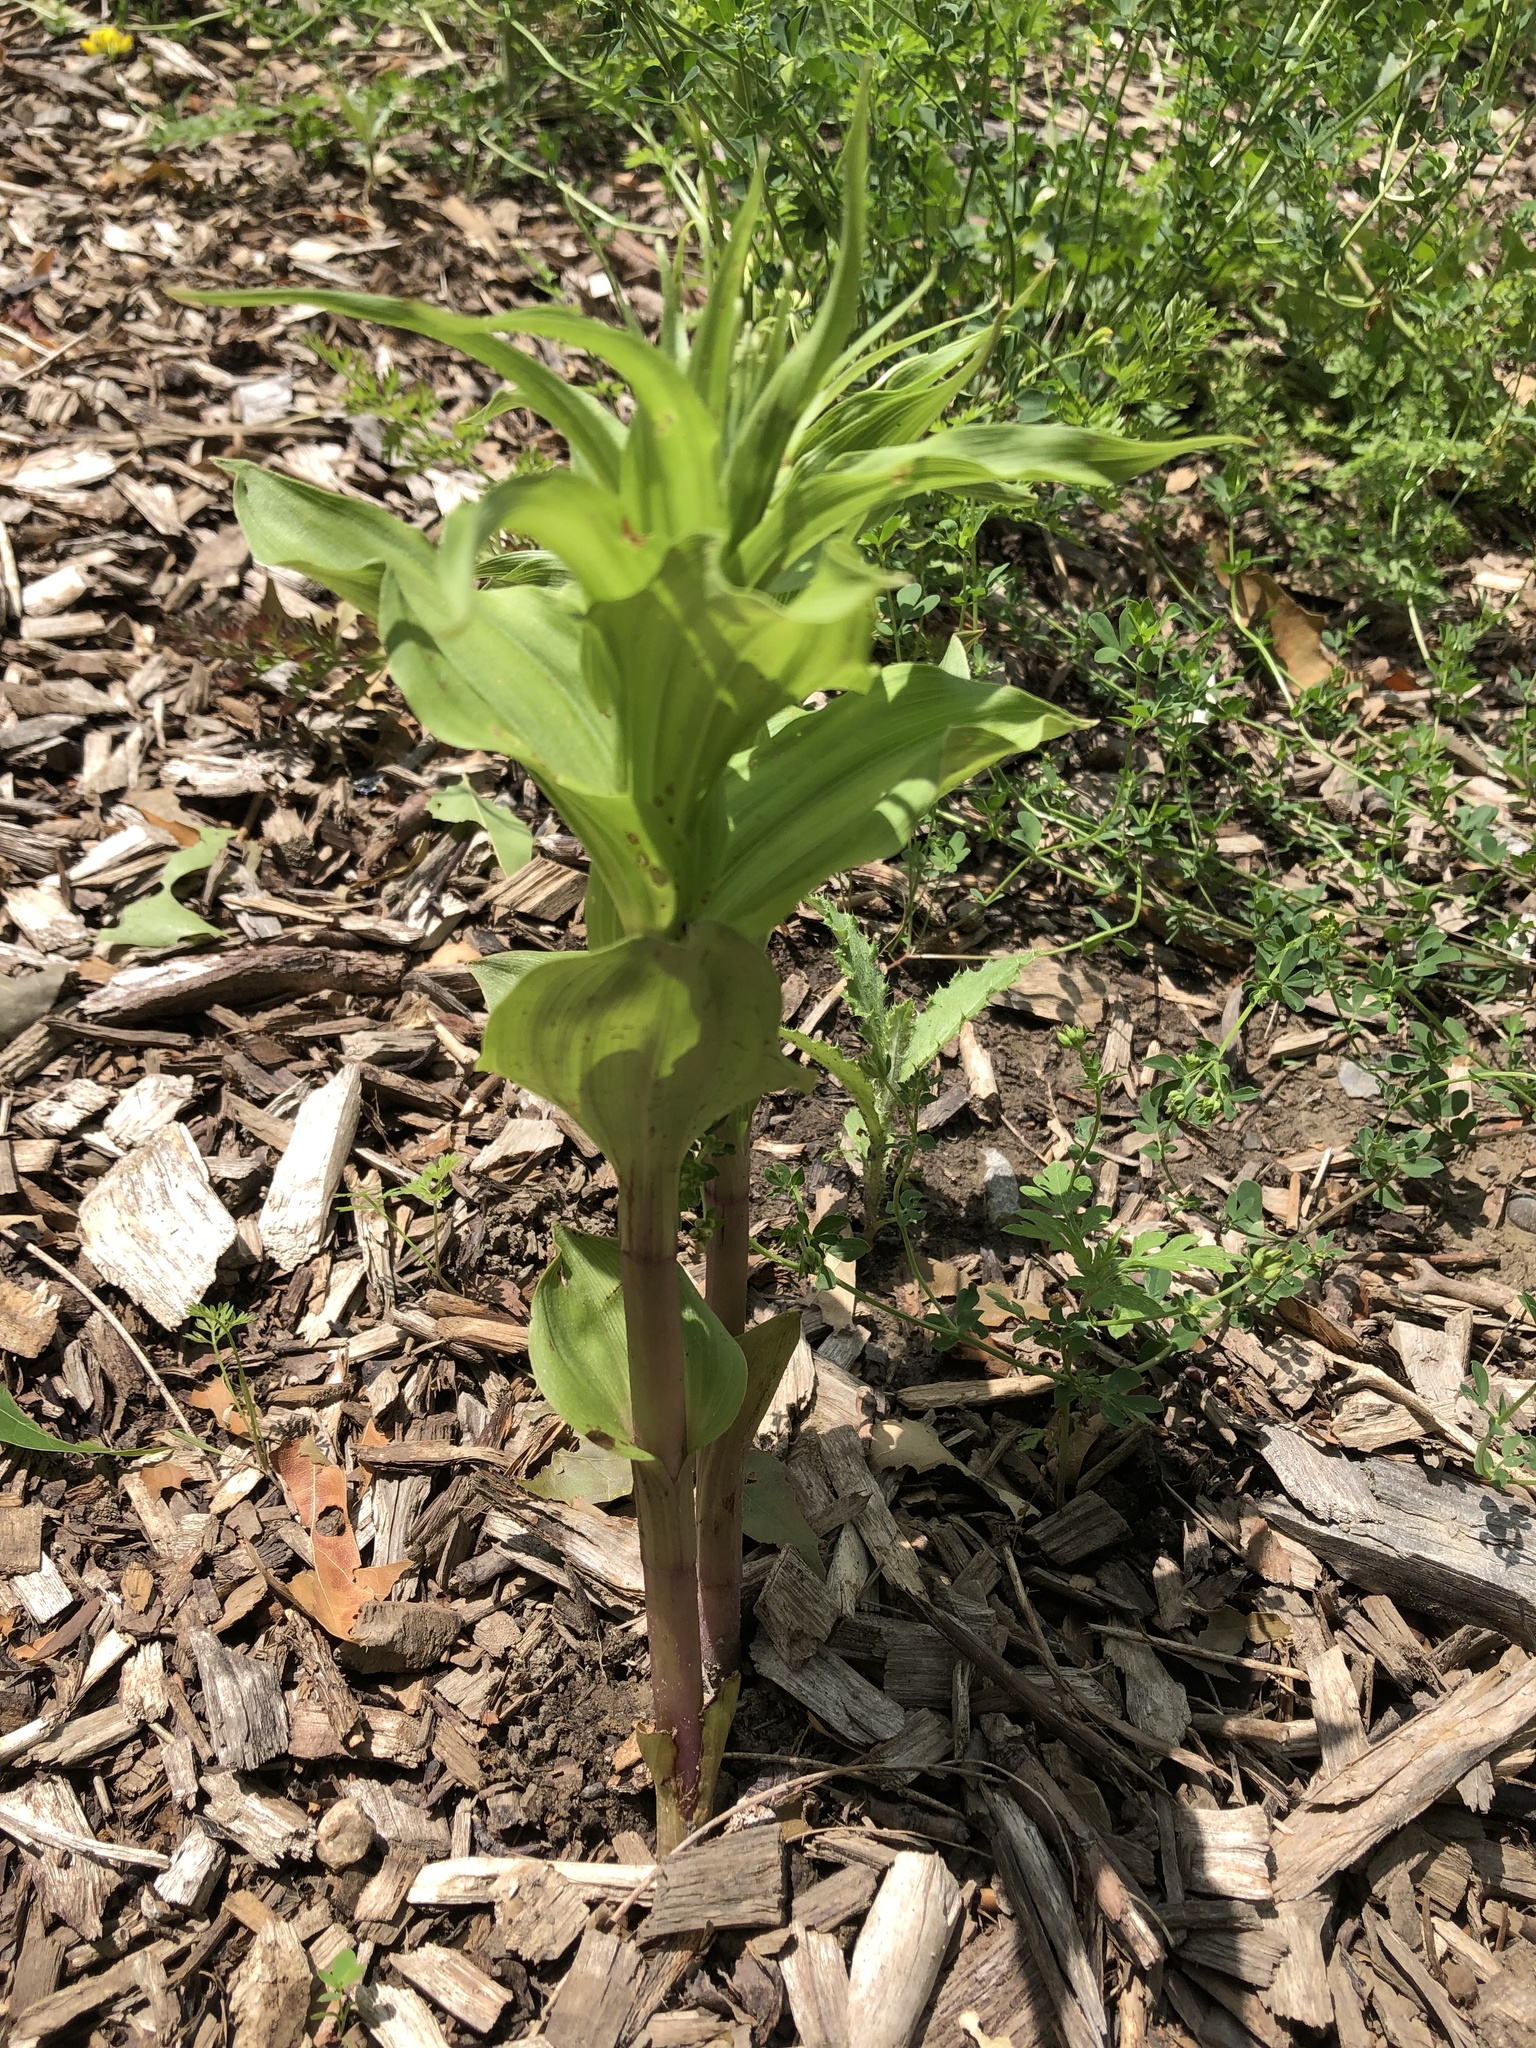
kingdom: Plantae
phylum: Tracheophyta
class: Liliopsida
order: Asparagales
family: Orchidaceae
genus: Epipactis
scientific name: Epipactis helleborine
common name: Broad-leaved helleborine
